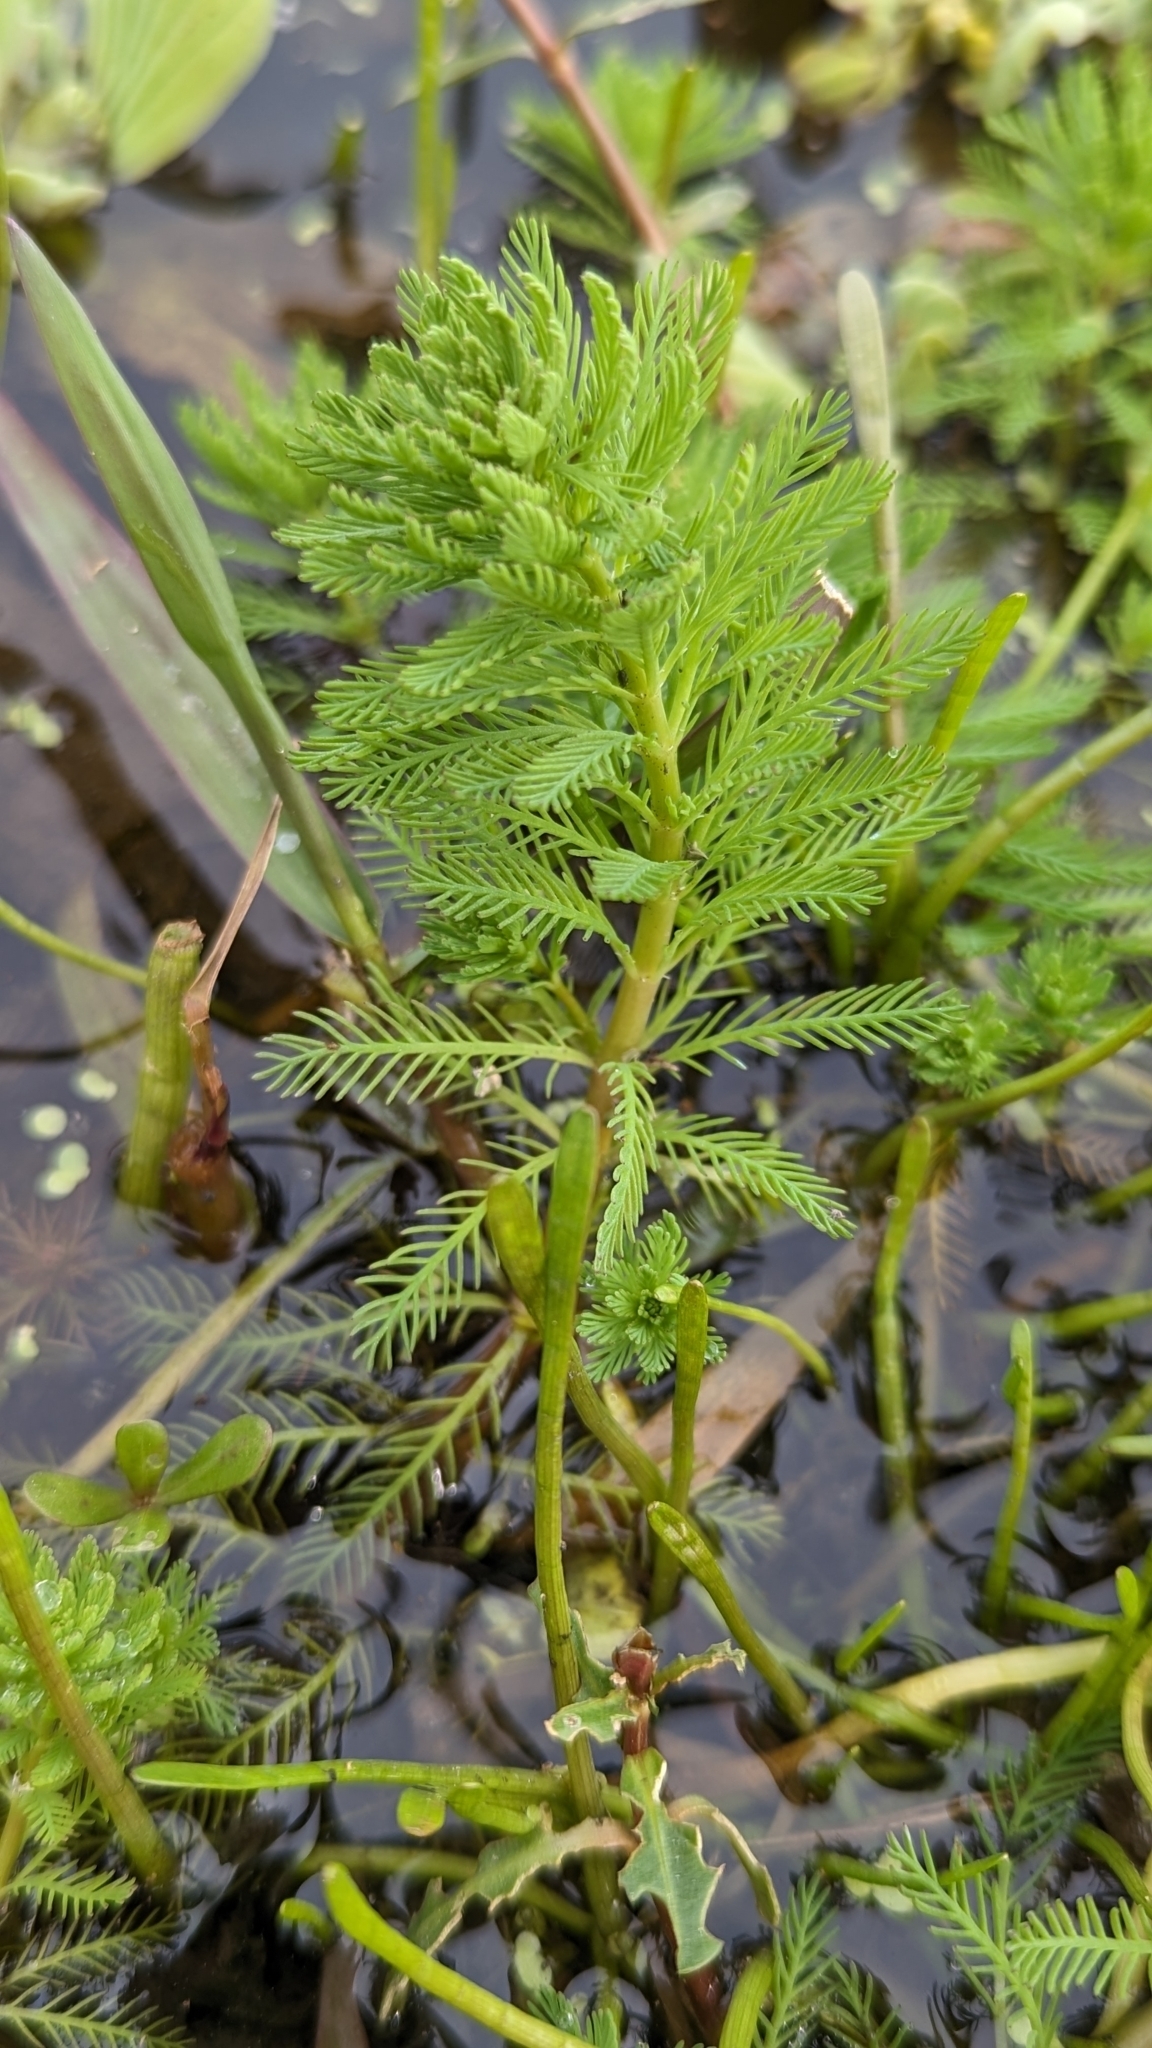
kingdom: Plantae
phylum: Tracheophyta
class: Magnoliopsida
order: Saxifragales
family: Haloragaceae
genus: Myriophyllum
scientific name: Myriophyllum aquaticum
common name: Parrot's feather
